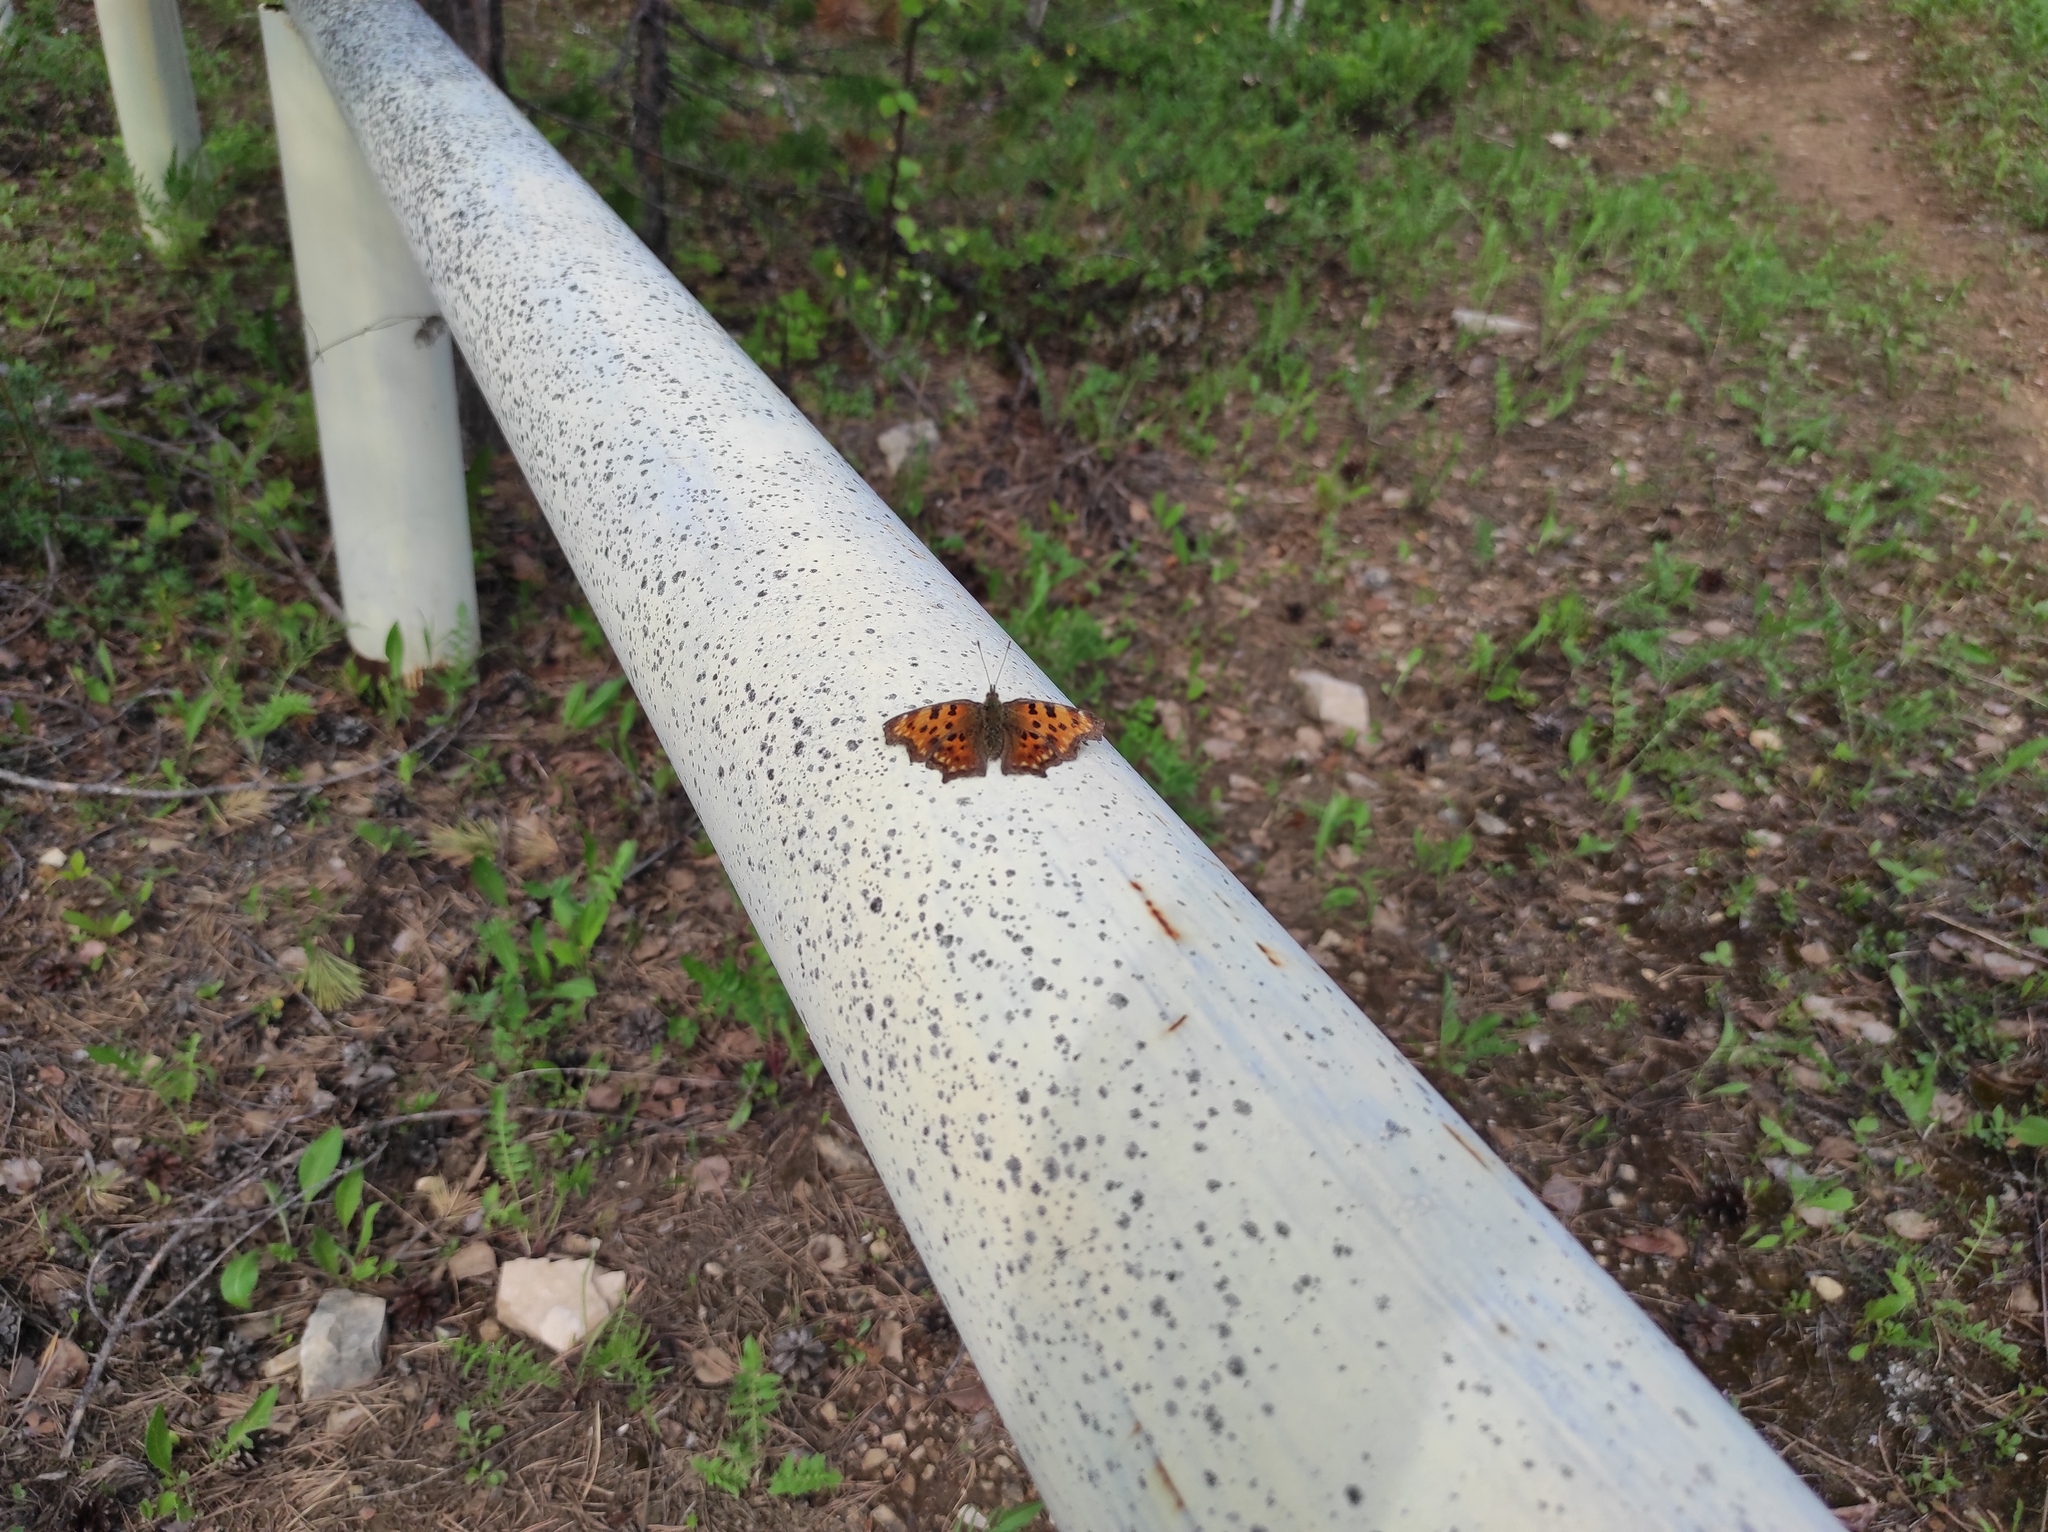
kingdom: Plantae
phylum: Tracheophyta
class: Pinopsida
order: Pinales
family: Pinaceae
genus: Pinus
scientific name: Pinus sylvestris
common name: Scots pine
